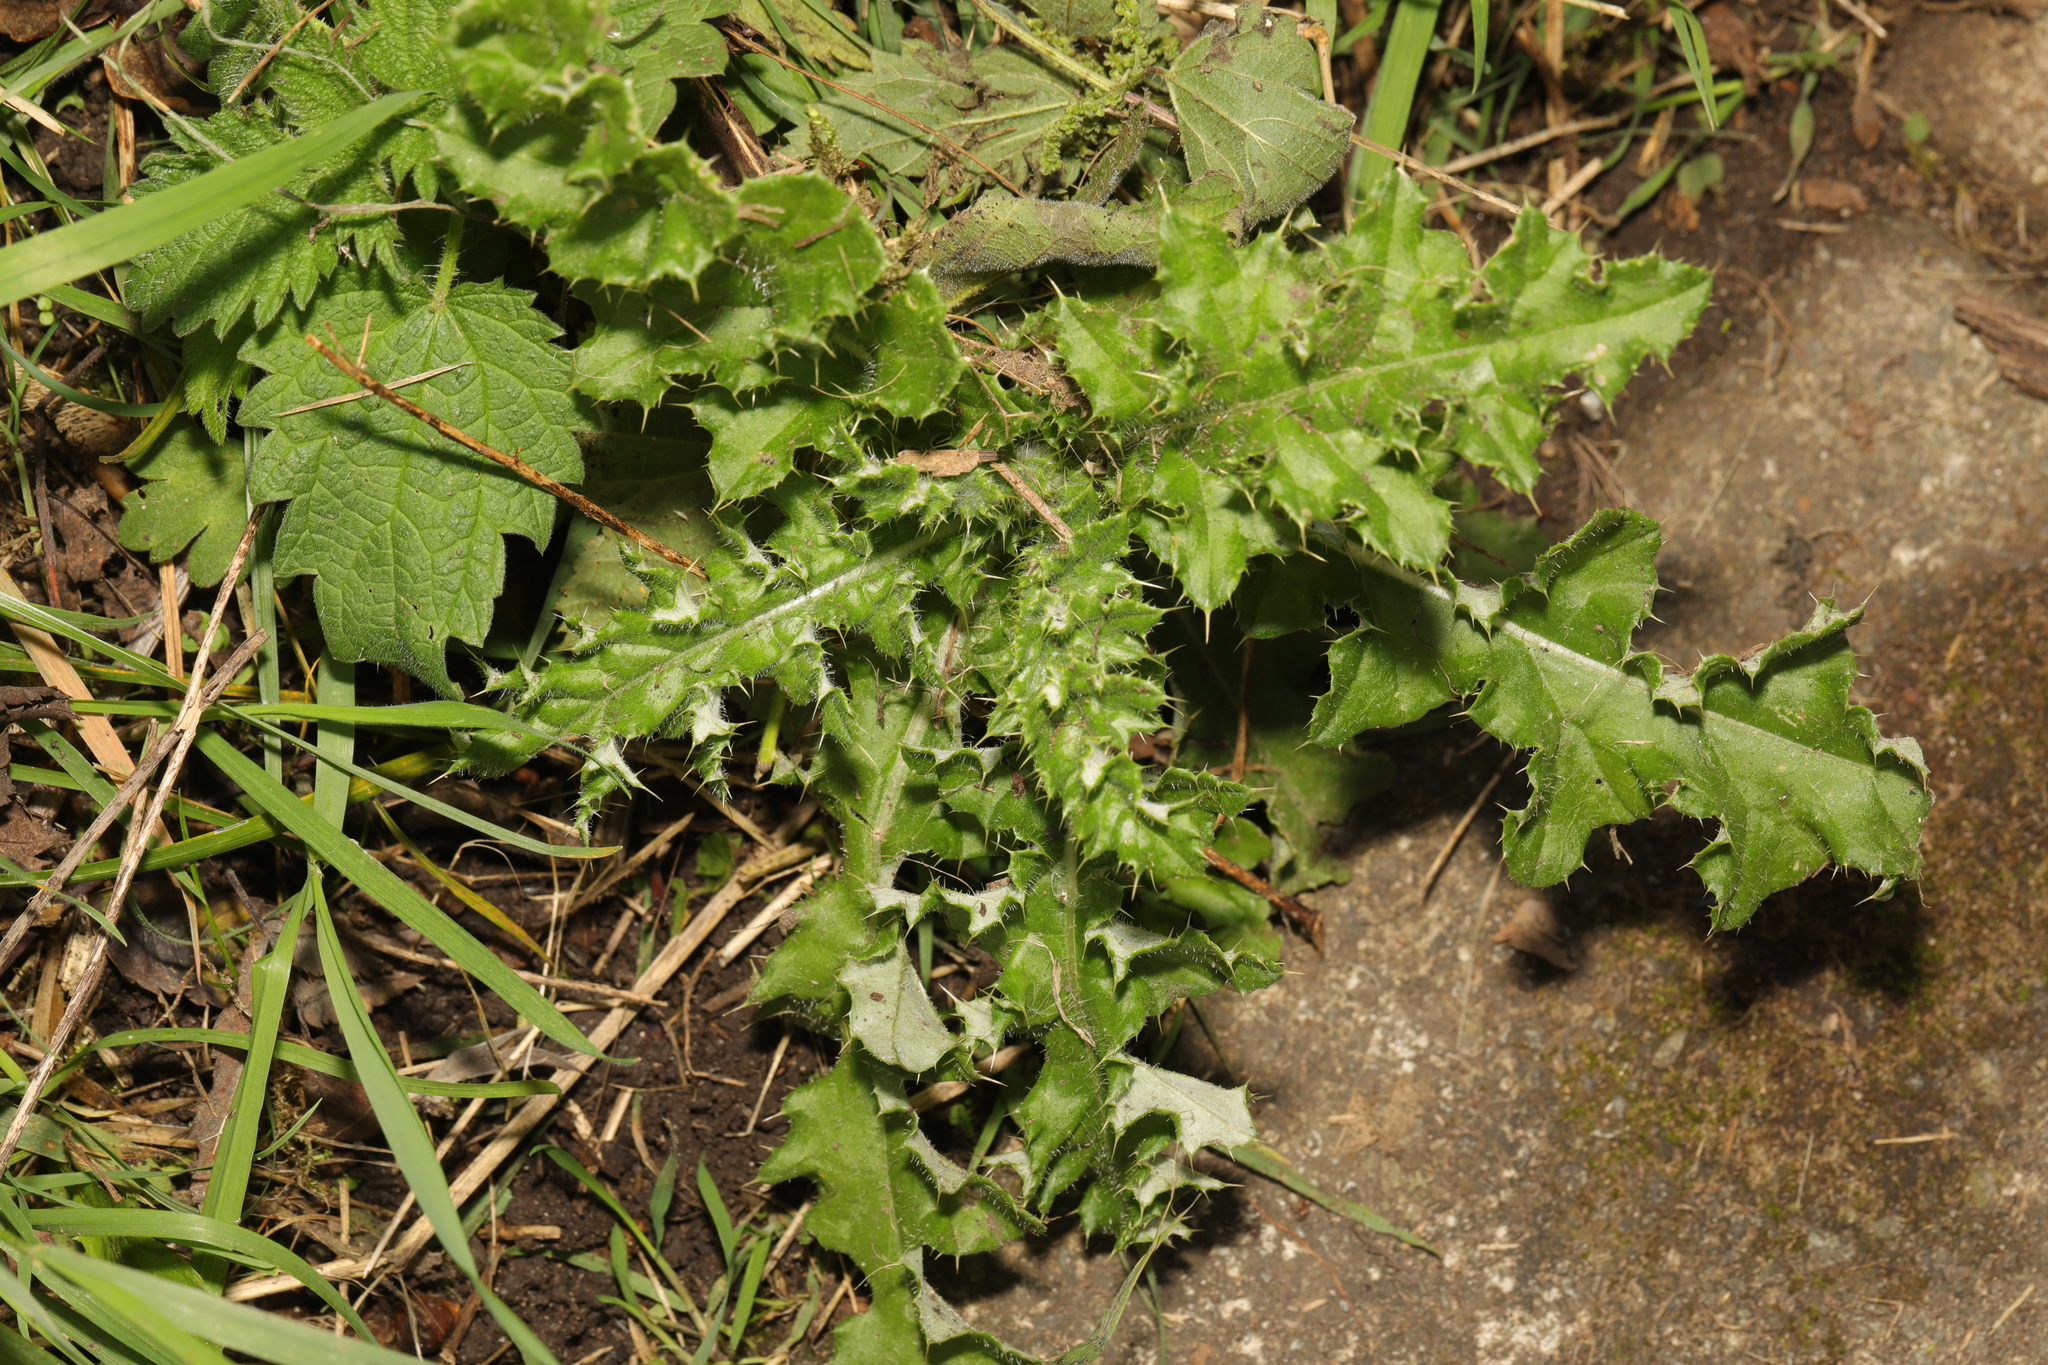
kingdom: Plantae
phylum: Tracheophyta
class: Magnoliopsida
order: Asterales
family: Asteraceae
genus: Cirsium
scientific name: Cirsium arvense
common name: Creeping thistle
